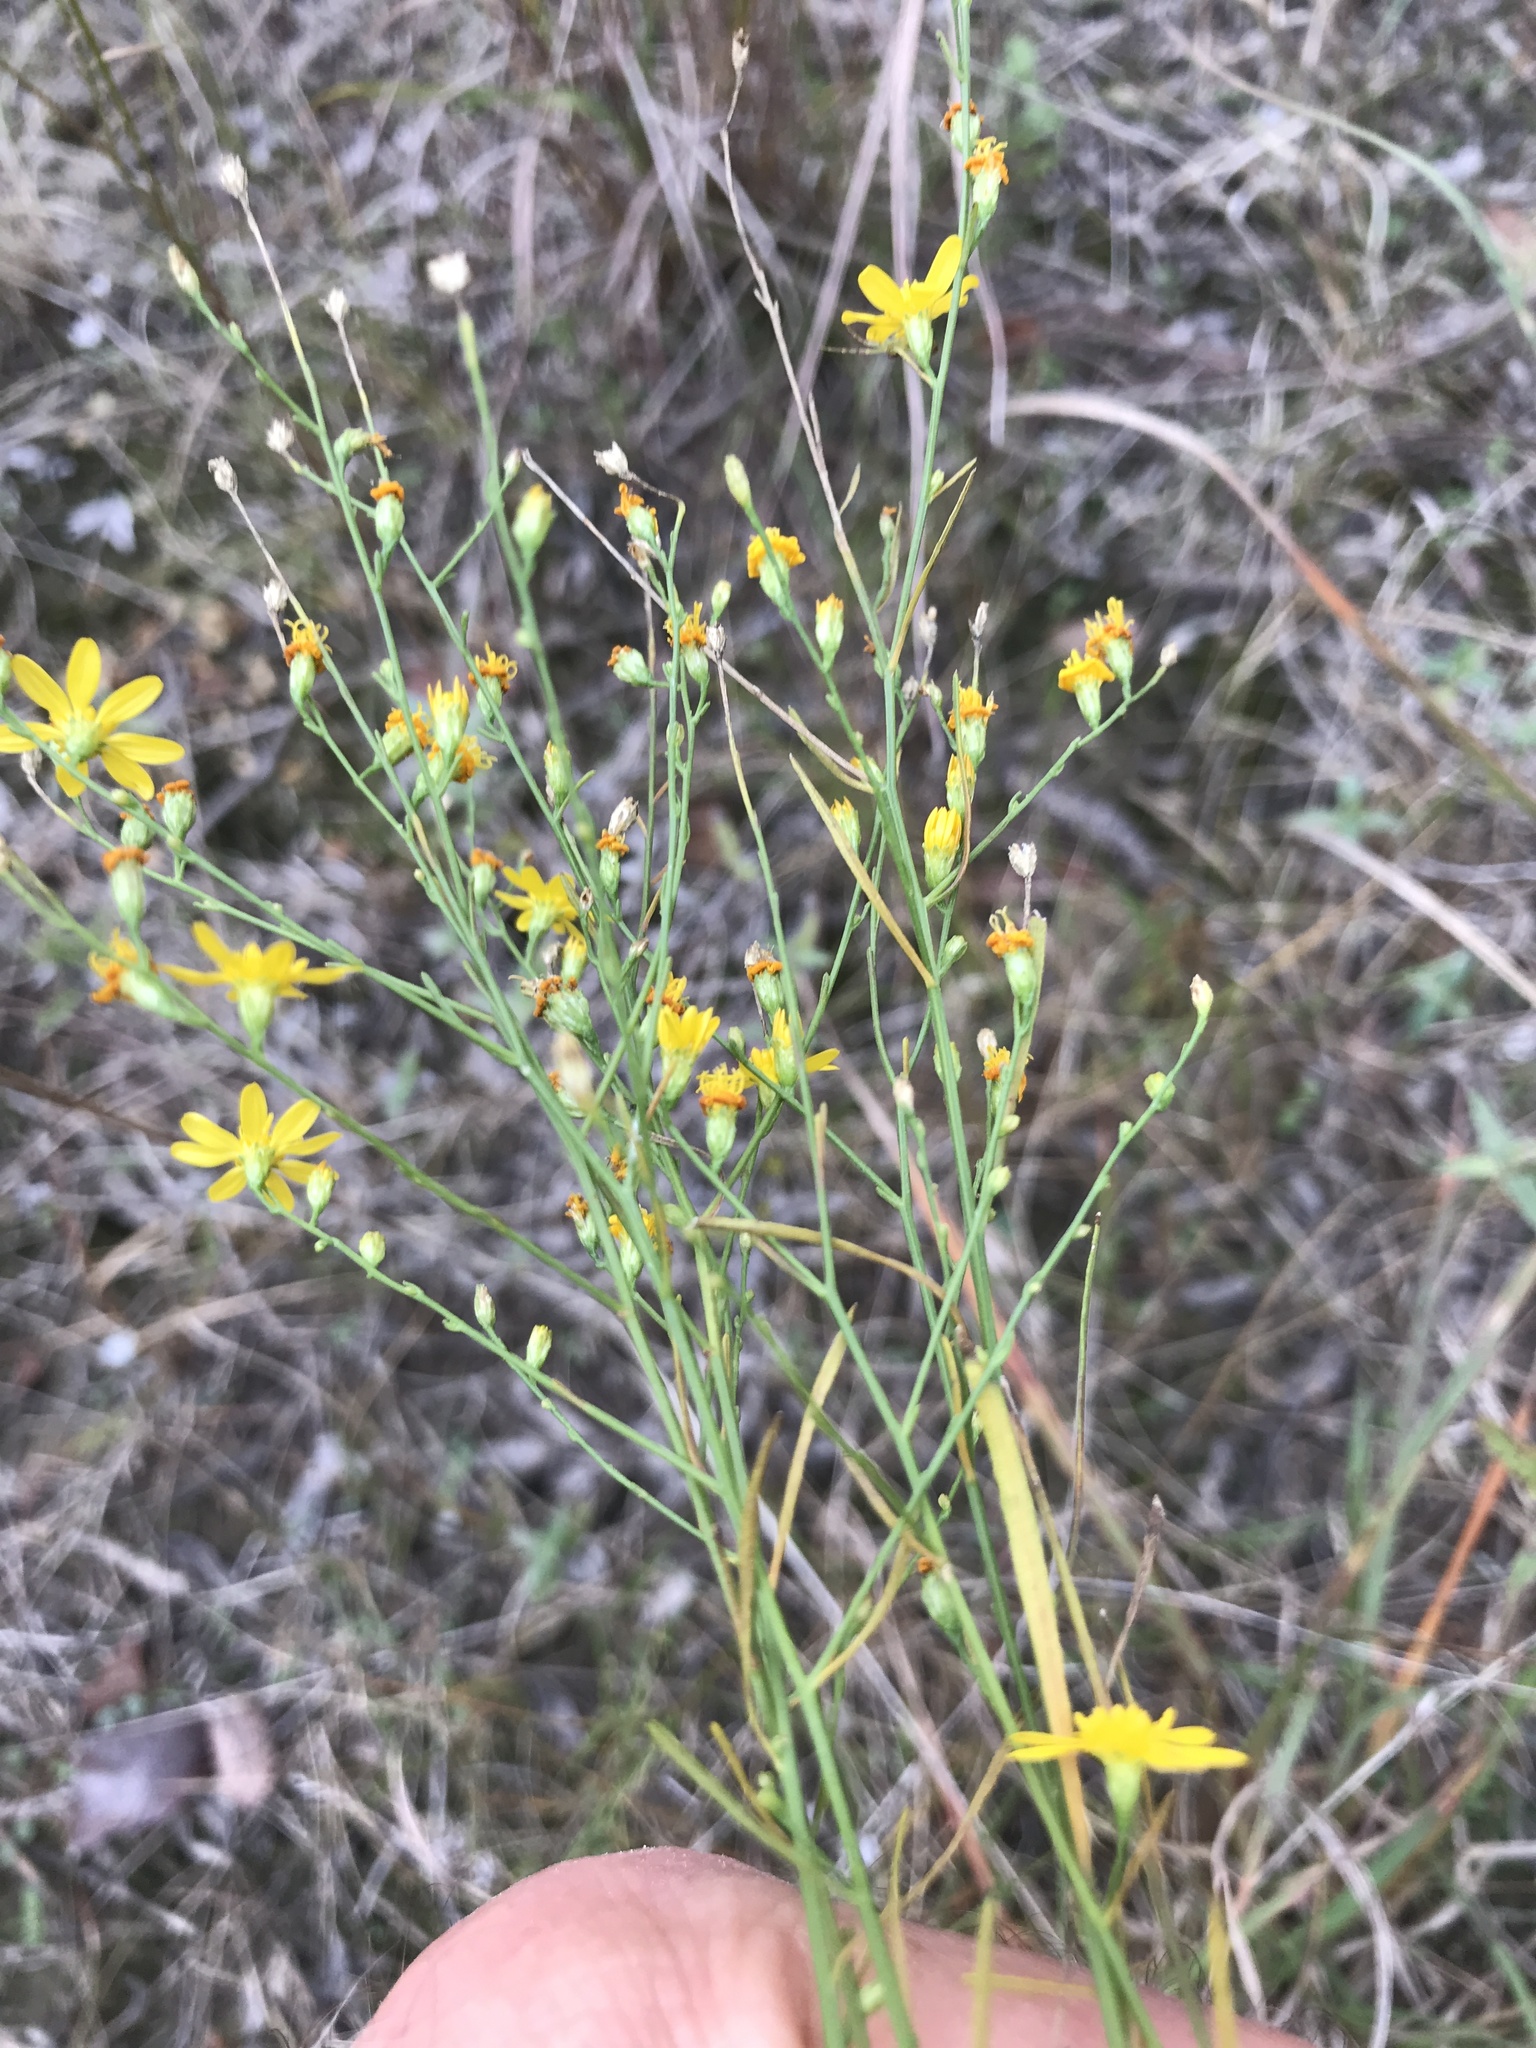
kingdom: Plantae
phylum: Tracheophyta
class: Magnoliopsida
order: Asterales
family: Asteraceae
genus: Gutierrezia
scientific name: Gutierrezia texana
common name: Texas snakeweed
